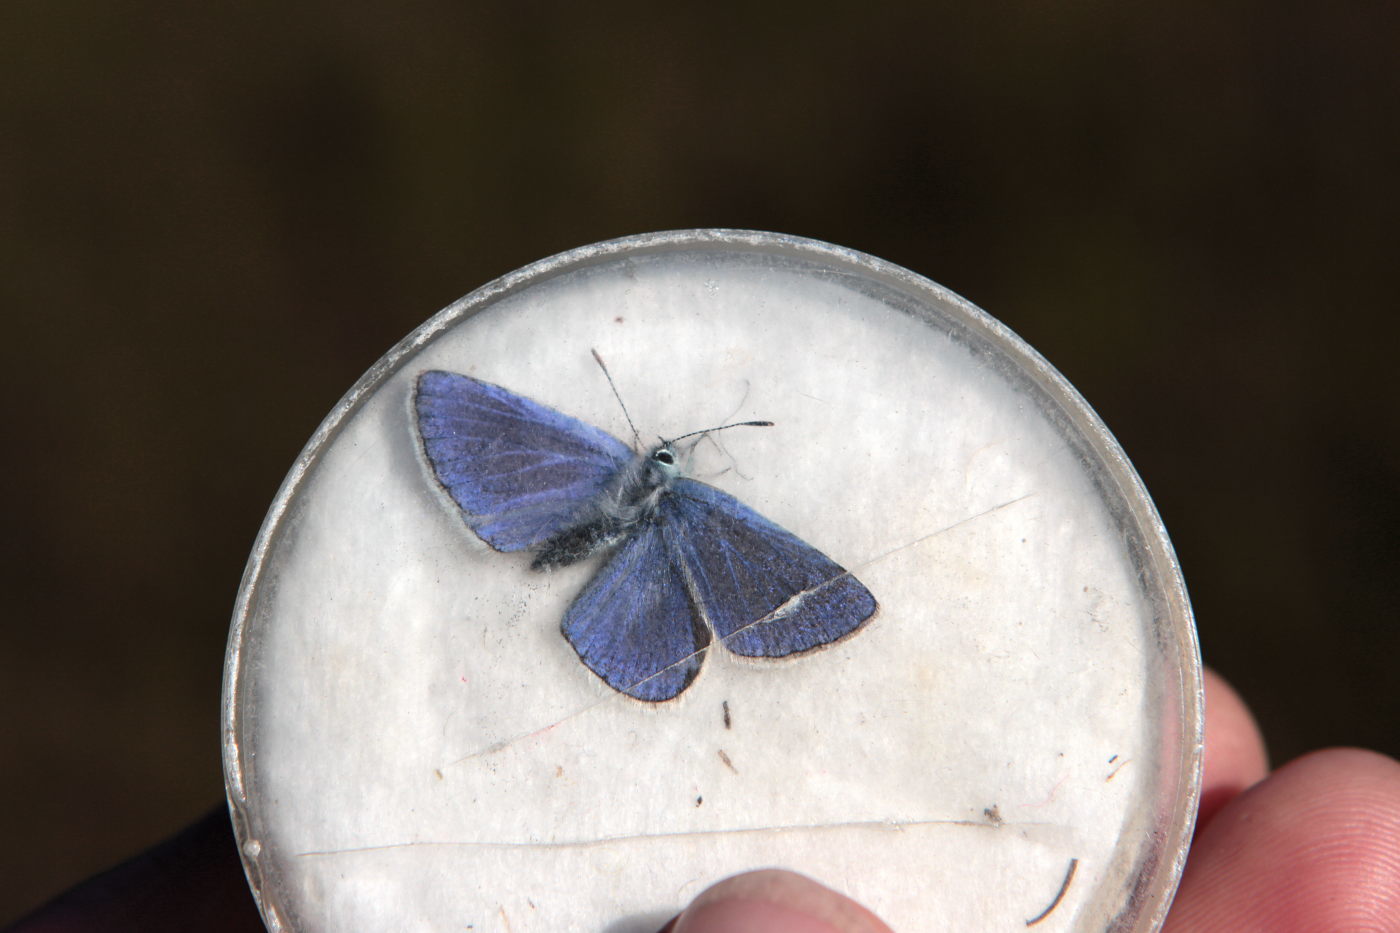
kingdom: Animalia
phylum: Arthropoda
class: Insecta
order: Lepidoptera
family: Lycaenidae
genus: Polyommatus
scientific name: Polyommatus icarus
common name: Common blue
